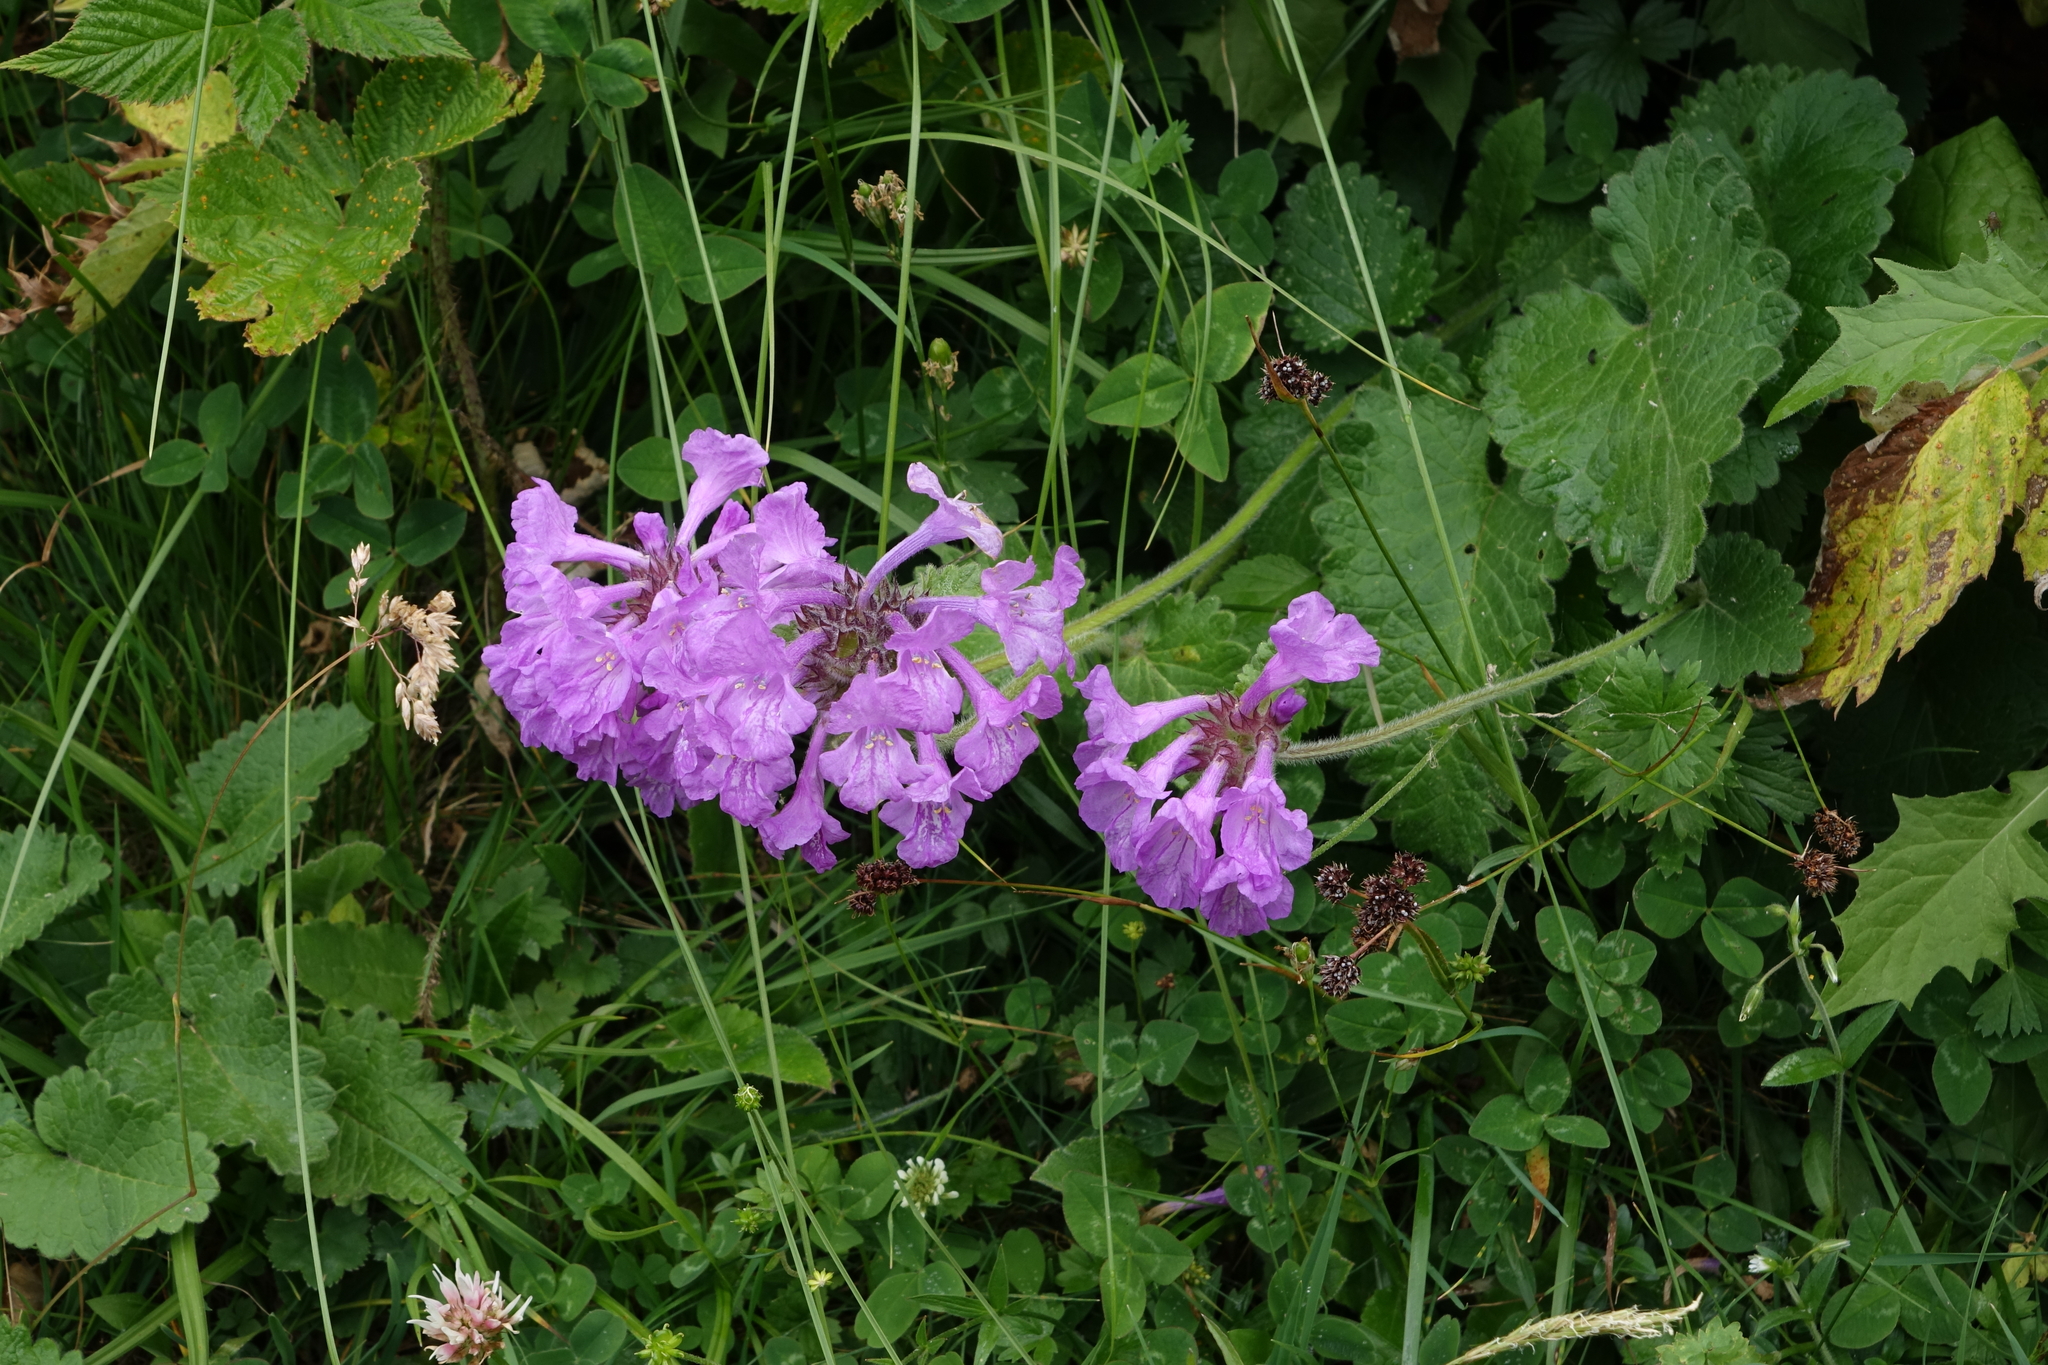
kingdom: Plantae
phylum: Tracheophyta
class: Magnoliopsida
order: Lamiales
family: Lamiaceae
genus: Betonica
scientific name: Betonica macrantha
